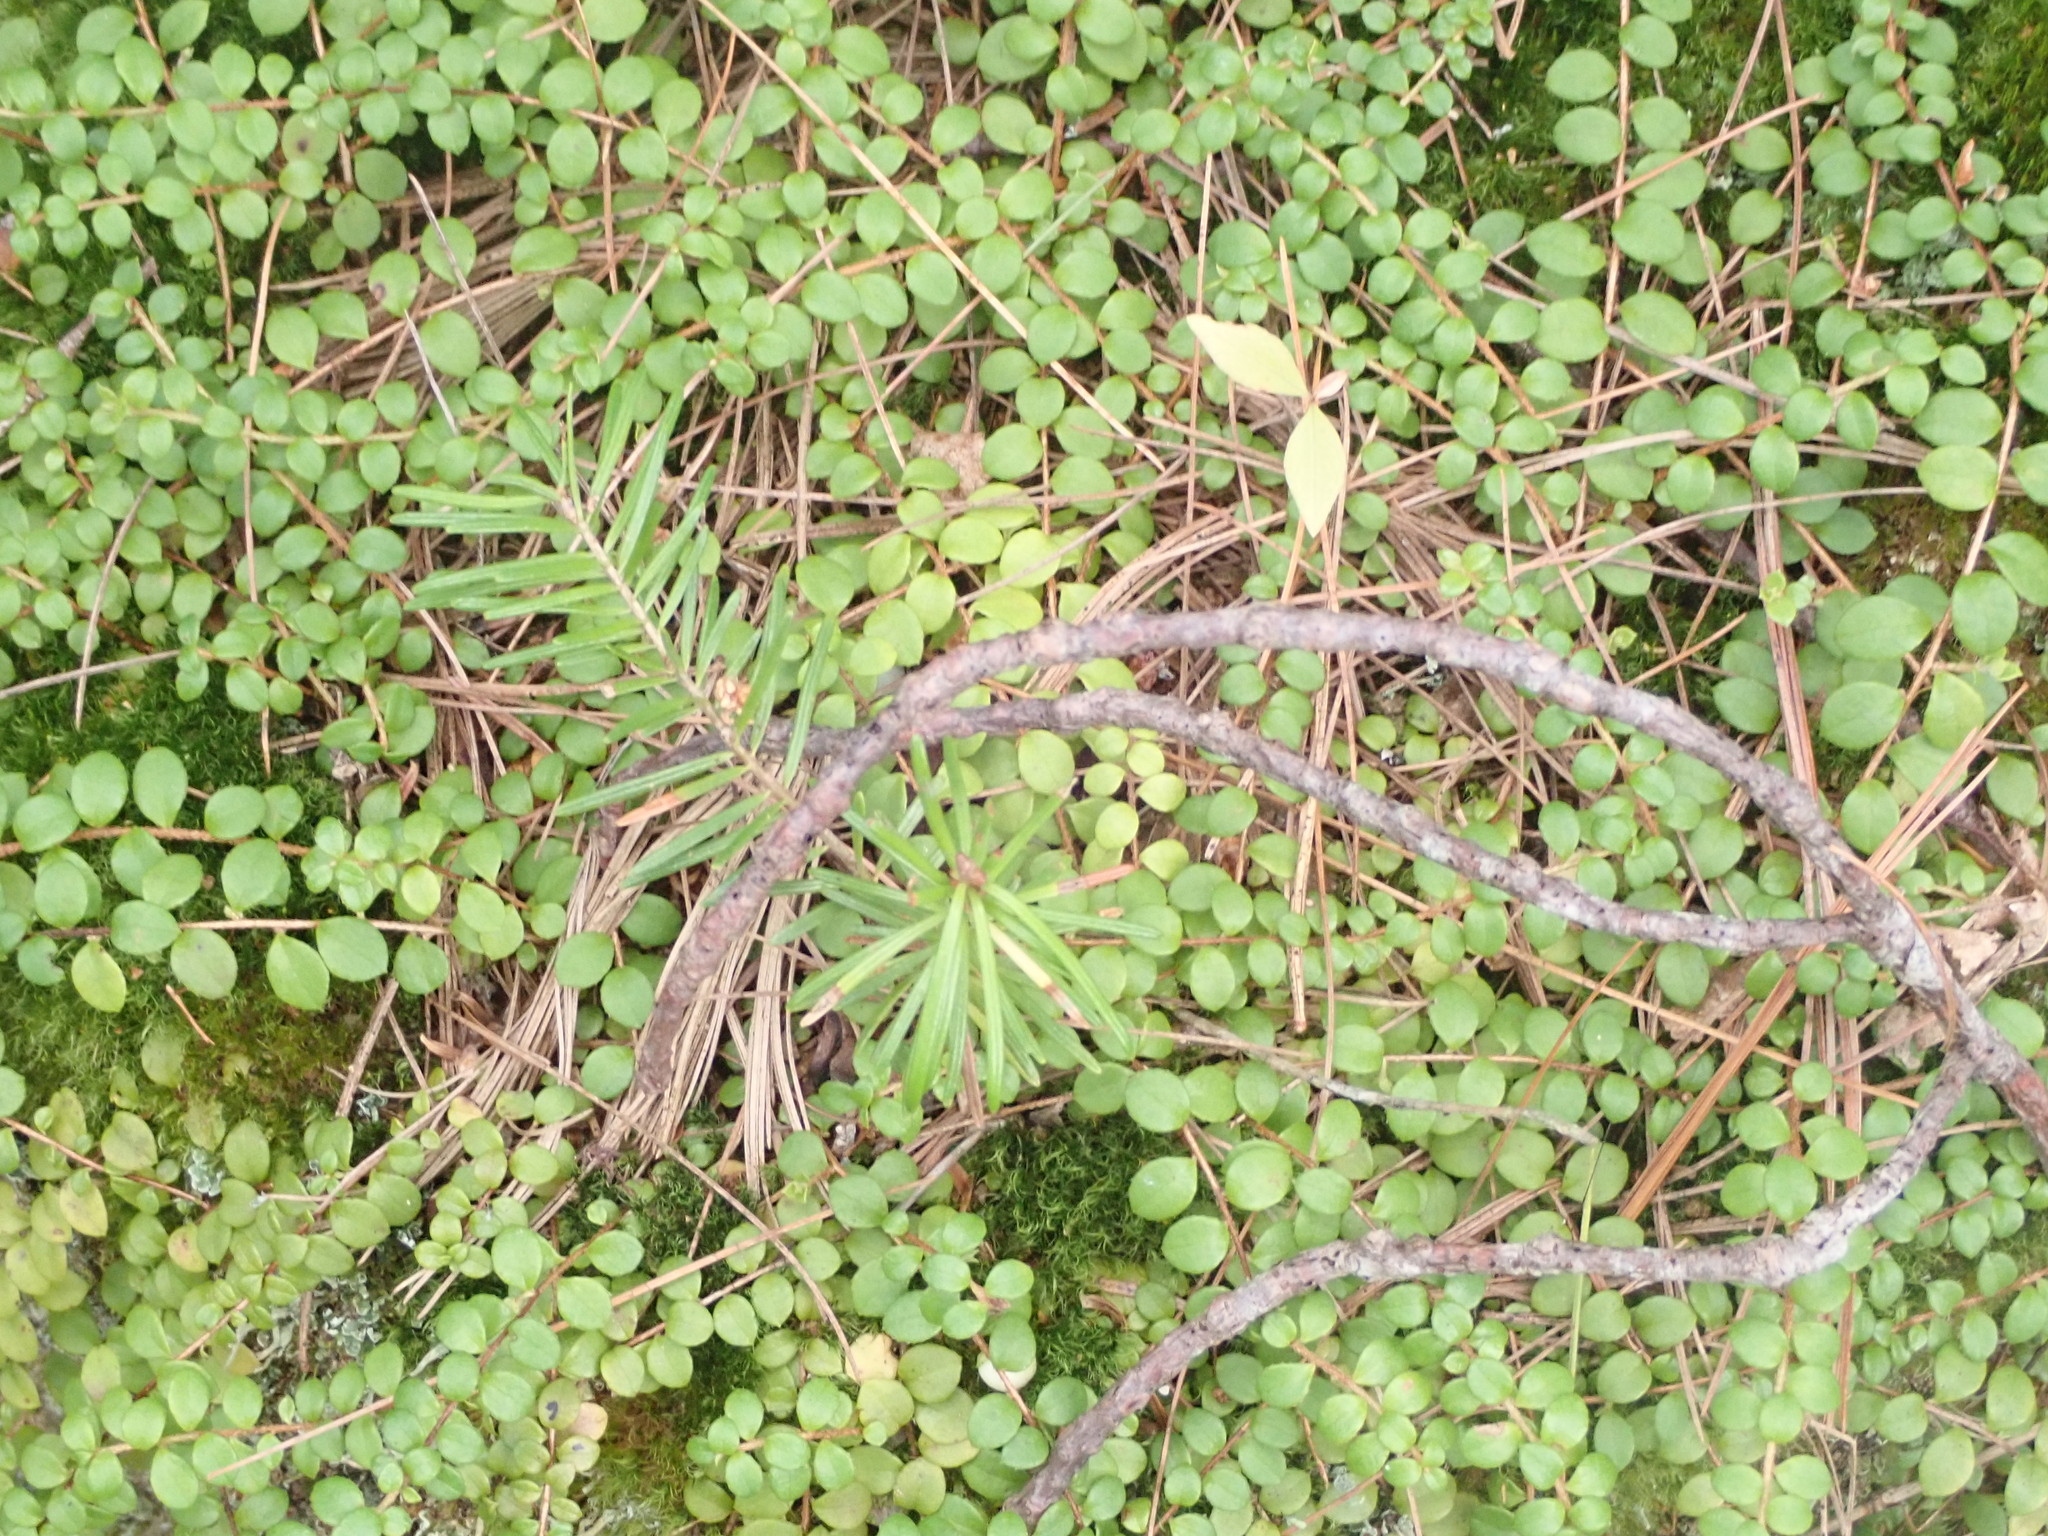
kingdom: Plantae
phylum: Tracheophyta
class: Magnoliopsida
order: Ericales
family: Ericaceae
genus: Gaultheria
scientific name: Gaultheria hispidula
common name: Cancer wintergreen
